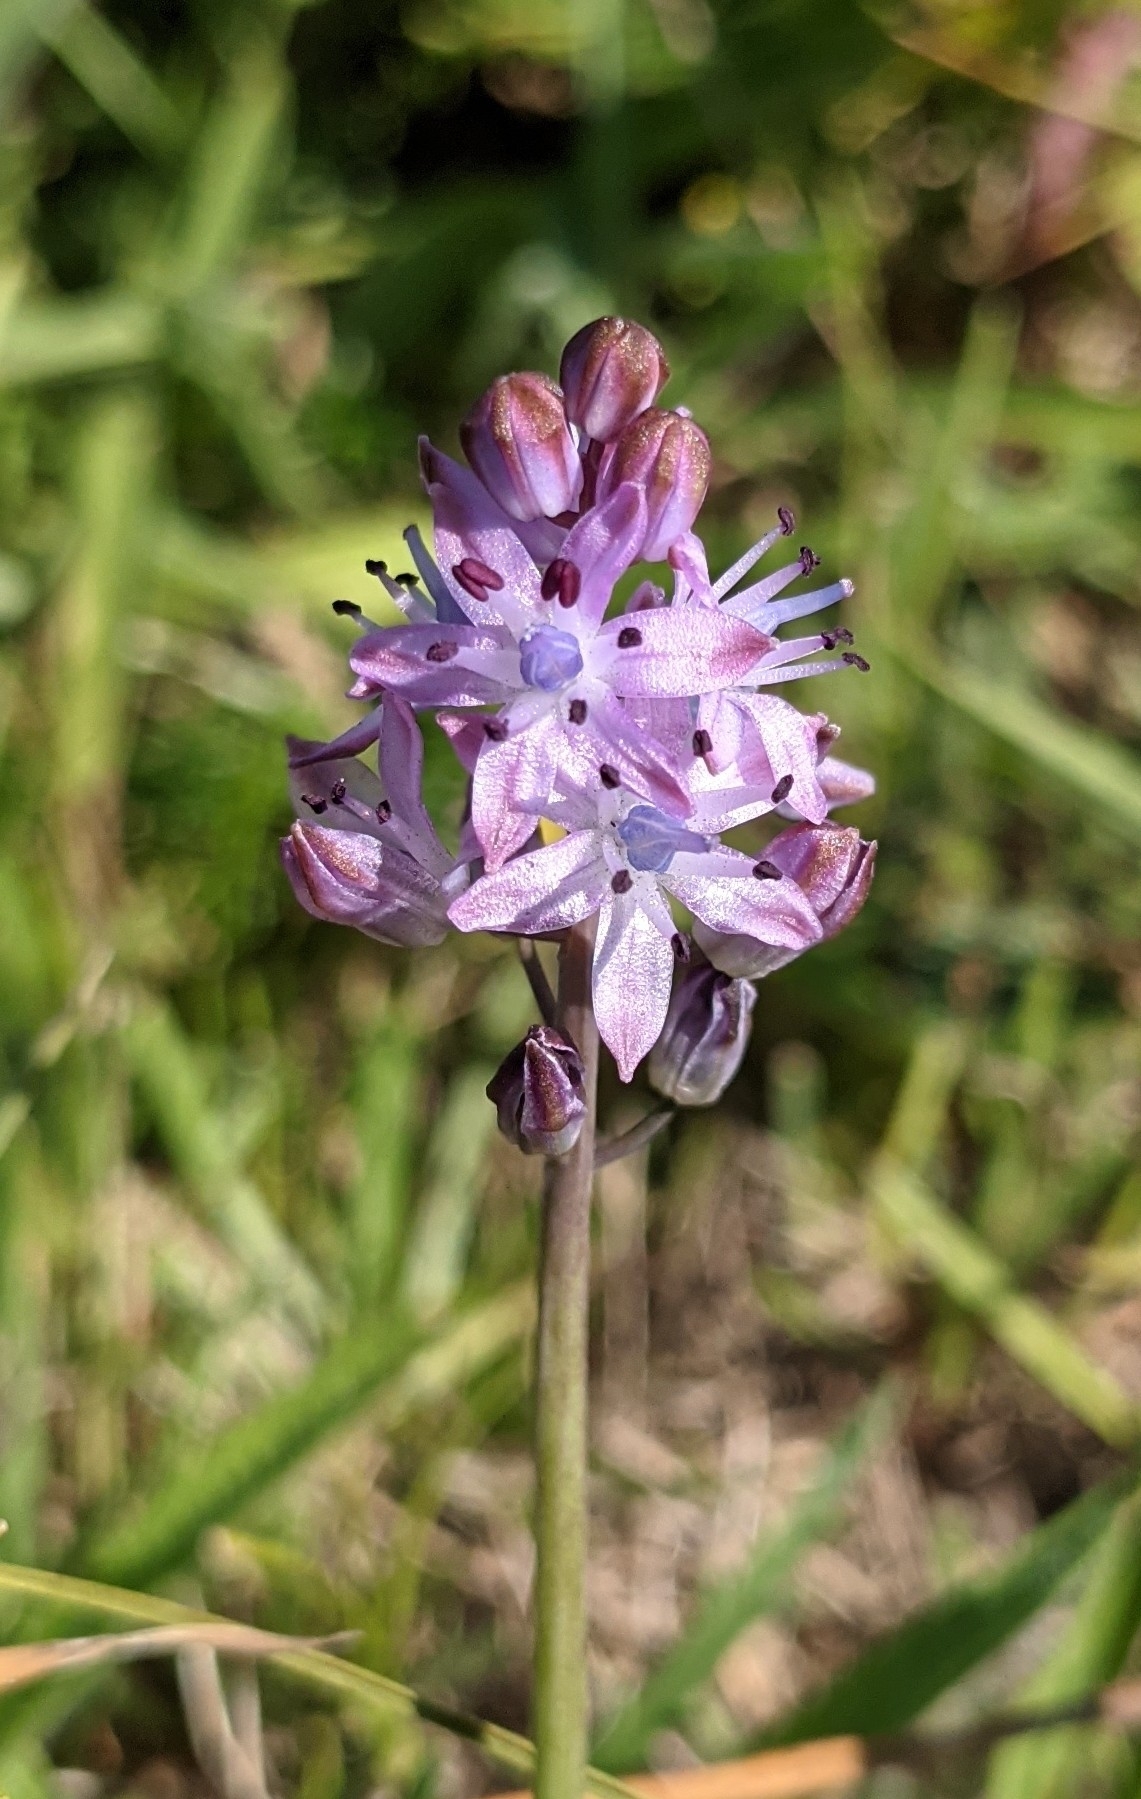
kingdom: Plantae
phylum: Tracheophyta
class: Liliopsida
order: Asparagales
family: Asparagaceae
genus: Prospero
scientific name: Prospero autumnale
